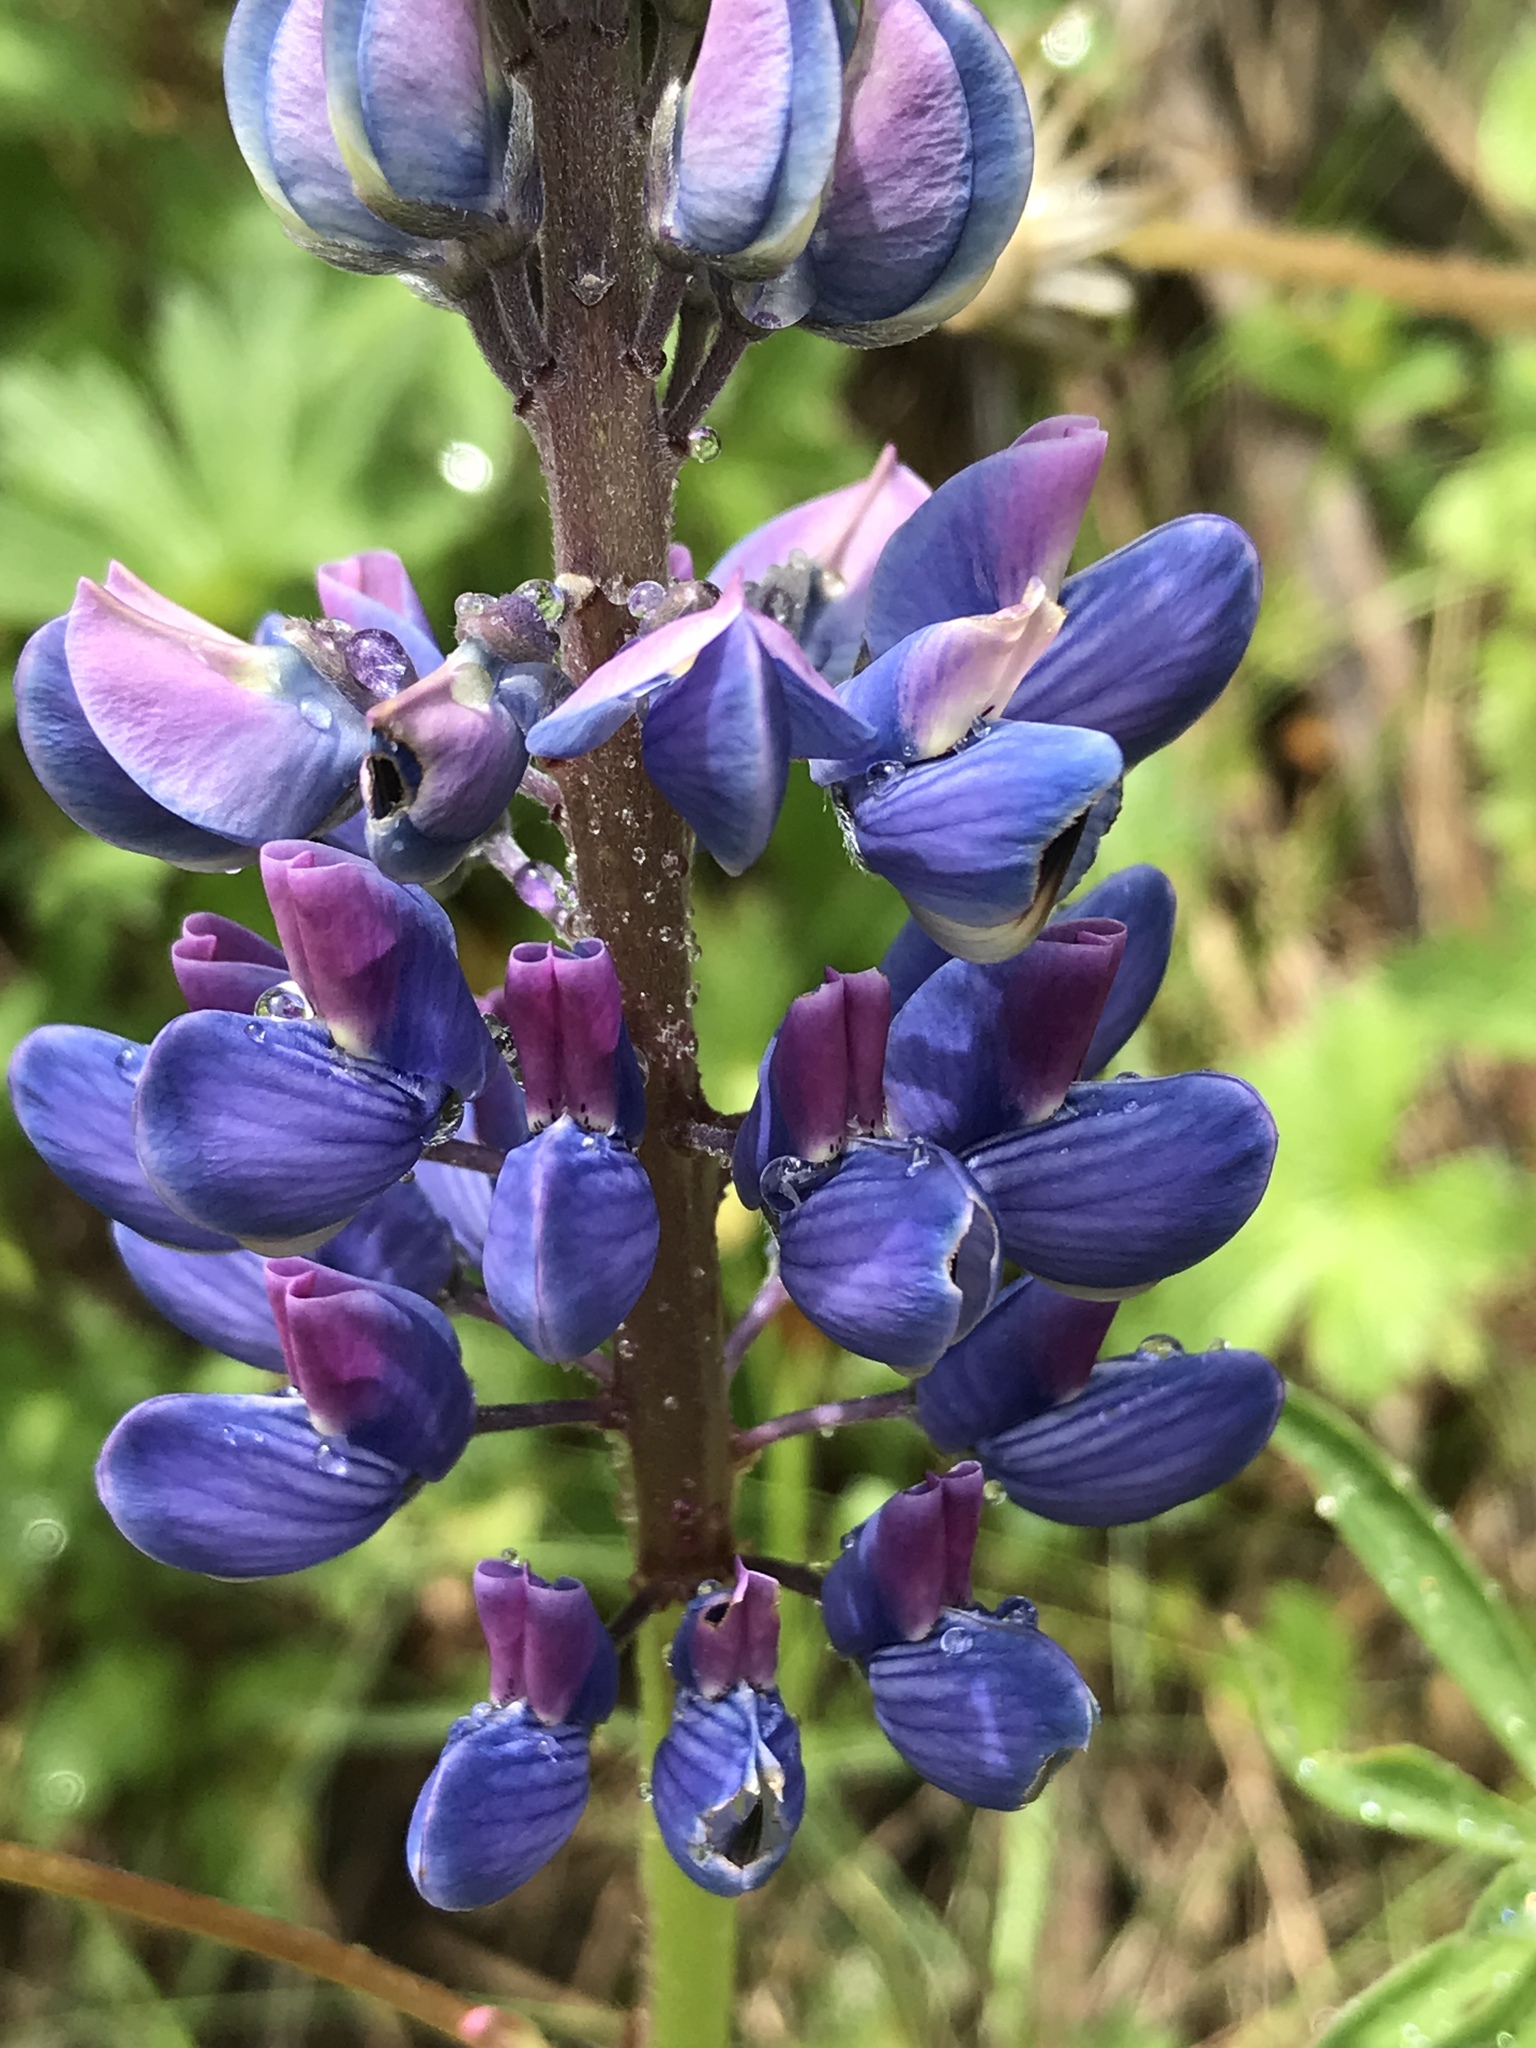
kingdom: Plantae
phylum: Tracheophyta
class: Magnoliopsida
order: Fabales
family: Fabaceae
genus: Lupinus
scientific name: Lupinus polyphyllus
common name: Garden lupin
